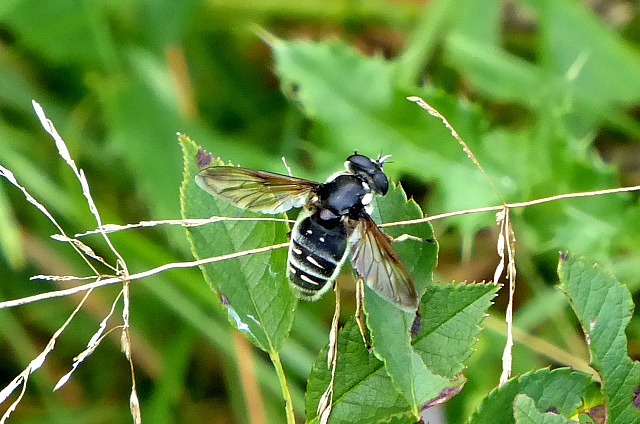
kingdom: Animalia
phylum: Arthropoda
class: Insecta
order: Diptera
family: Syrphidae
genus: Sericomyia
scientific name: Sericomyia militaris
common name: Narrow-banded pond fly
